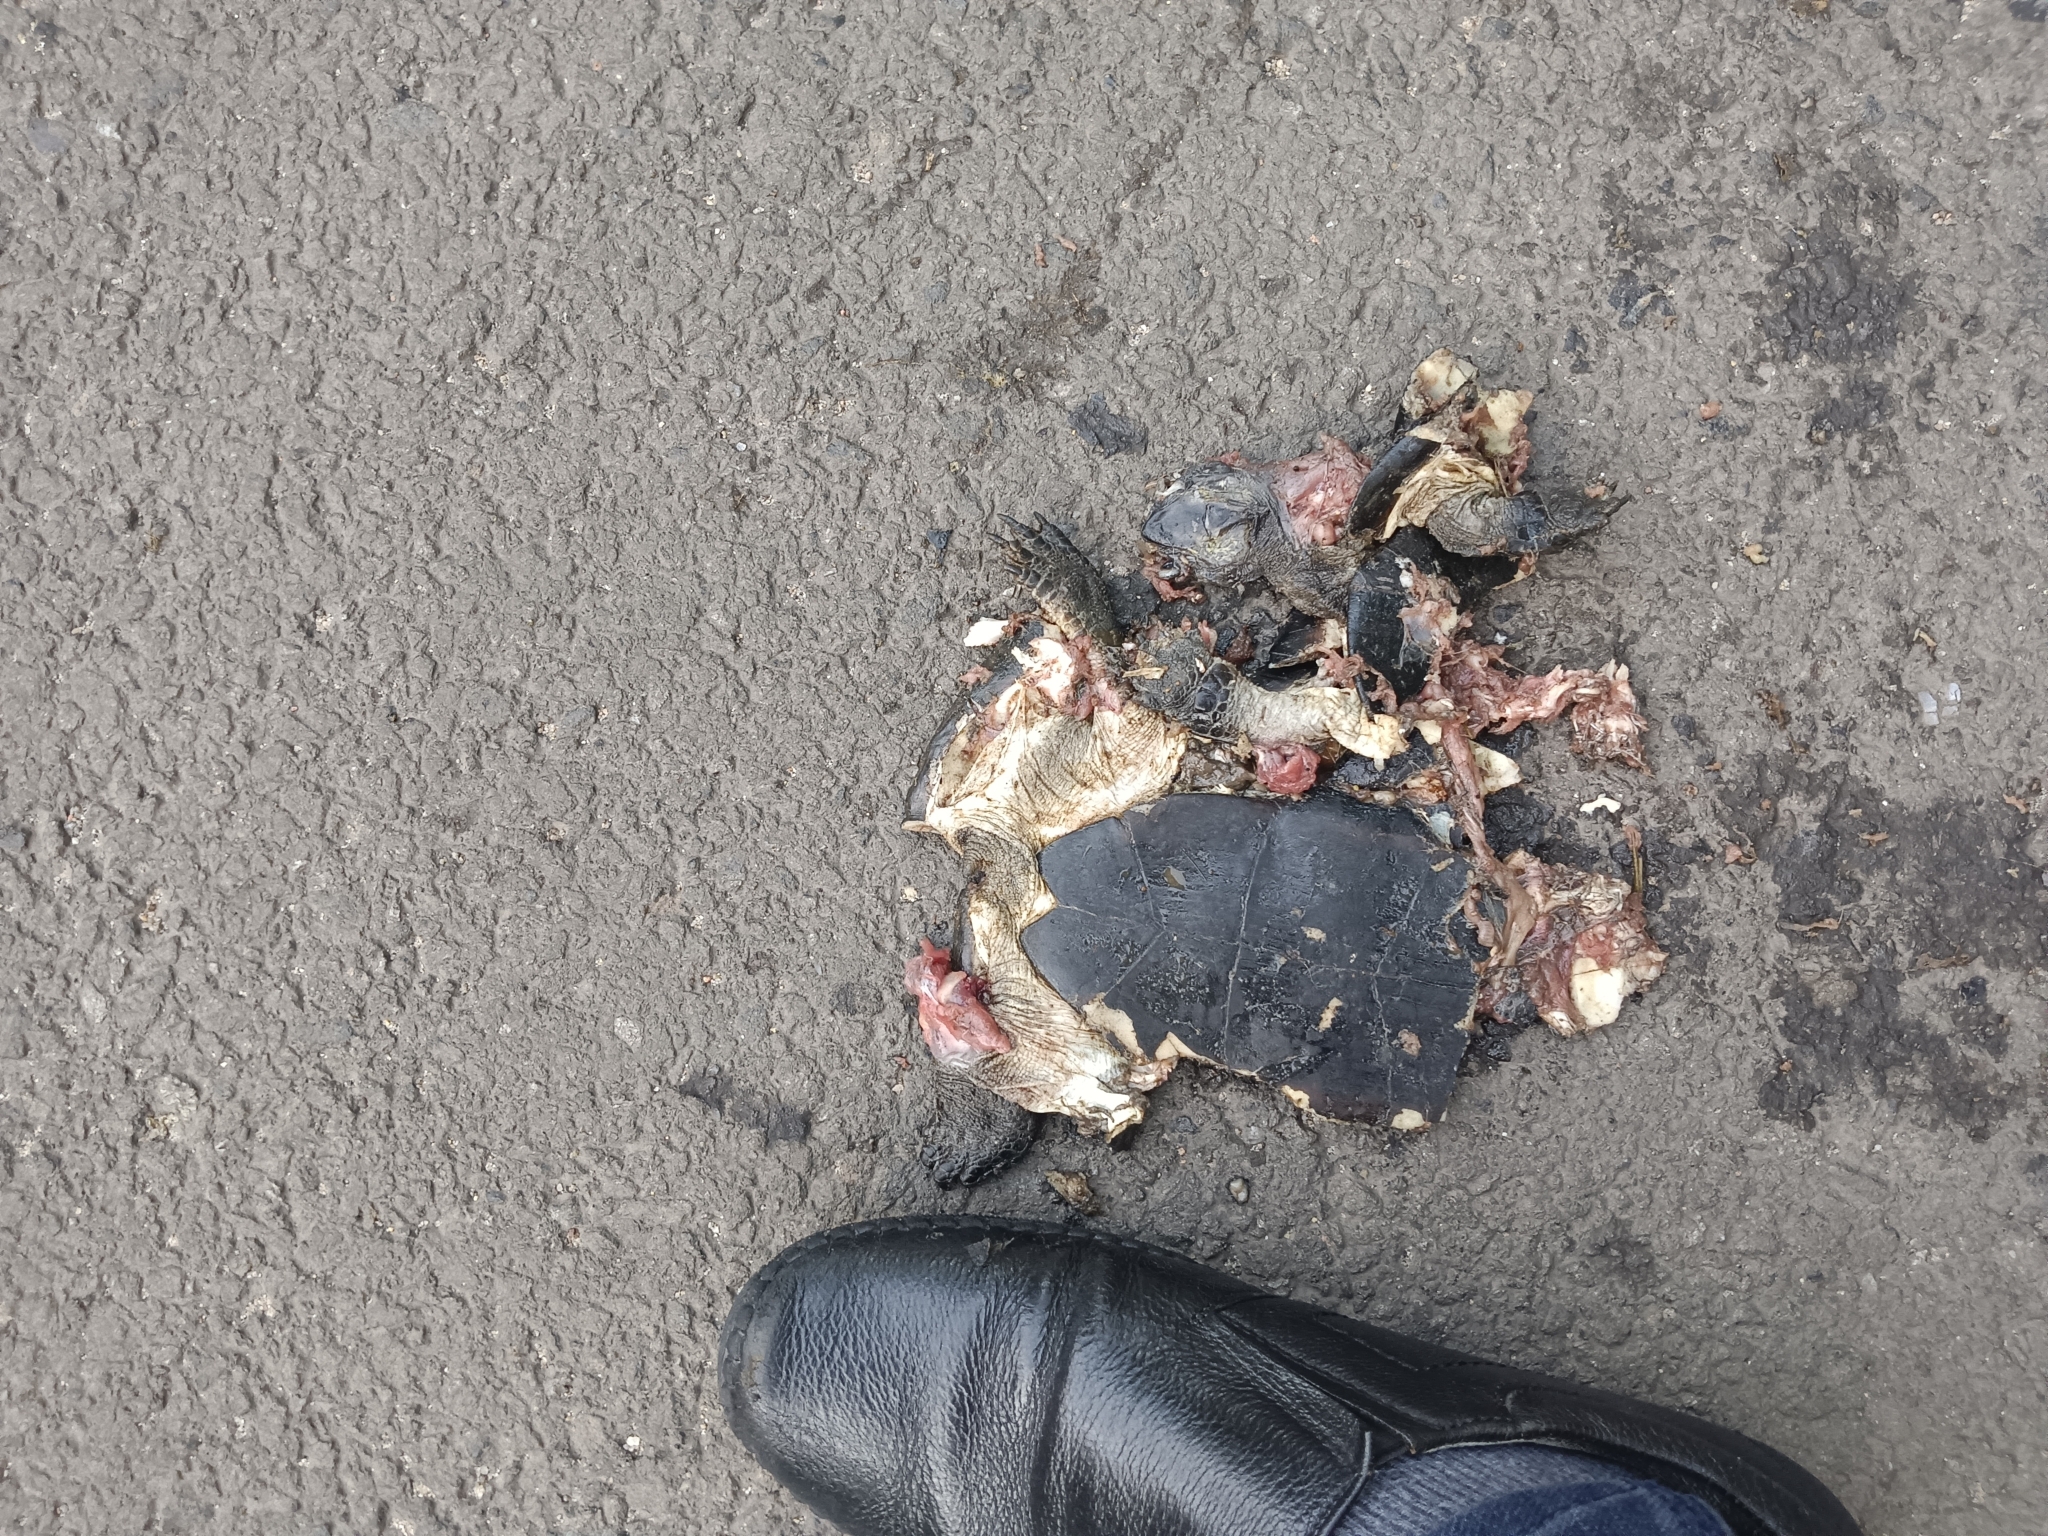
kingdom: Animalia
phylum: Chordata
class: Testudines
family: Geoemydidae
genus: Melanochelys
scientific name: Melanochelys trijuga
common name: Indian black turtle
